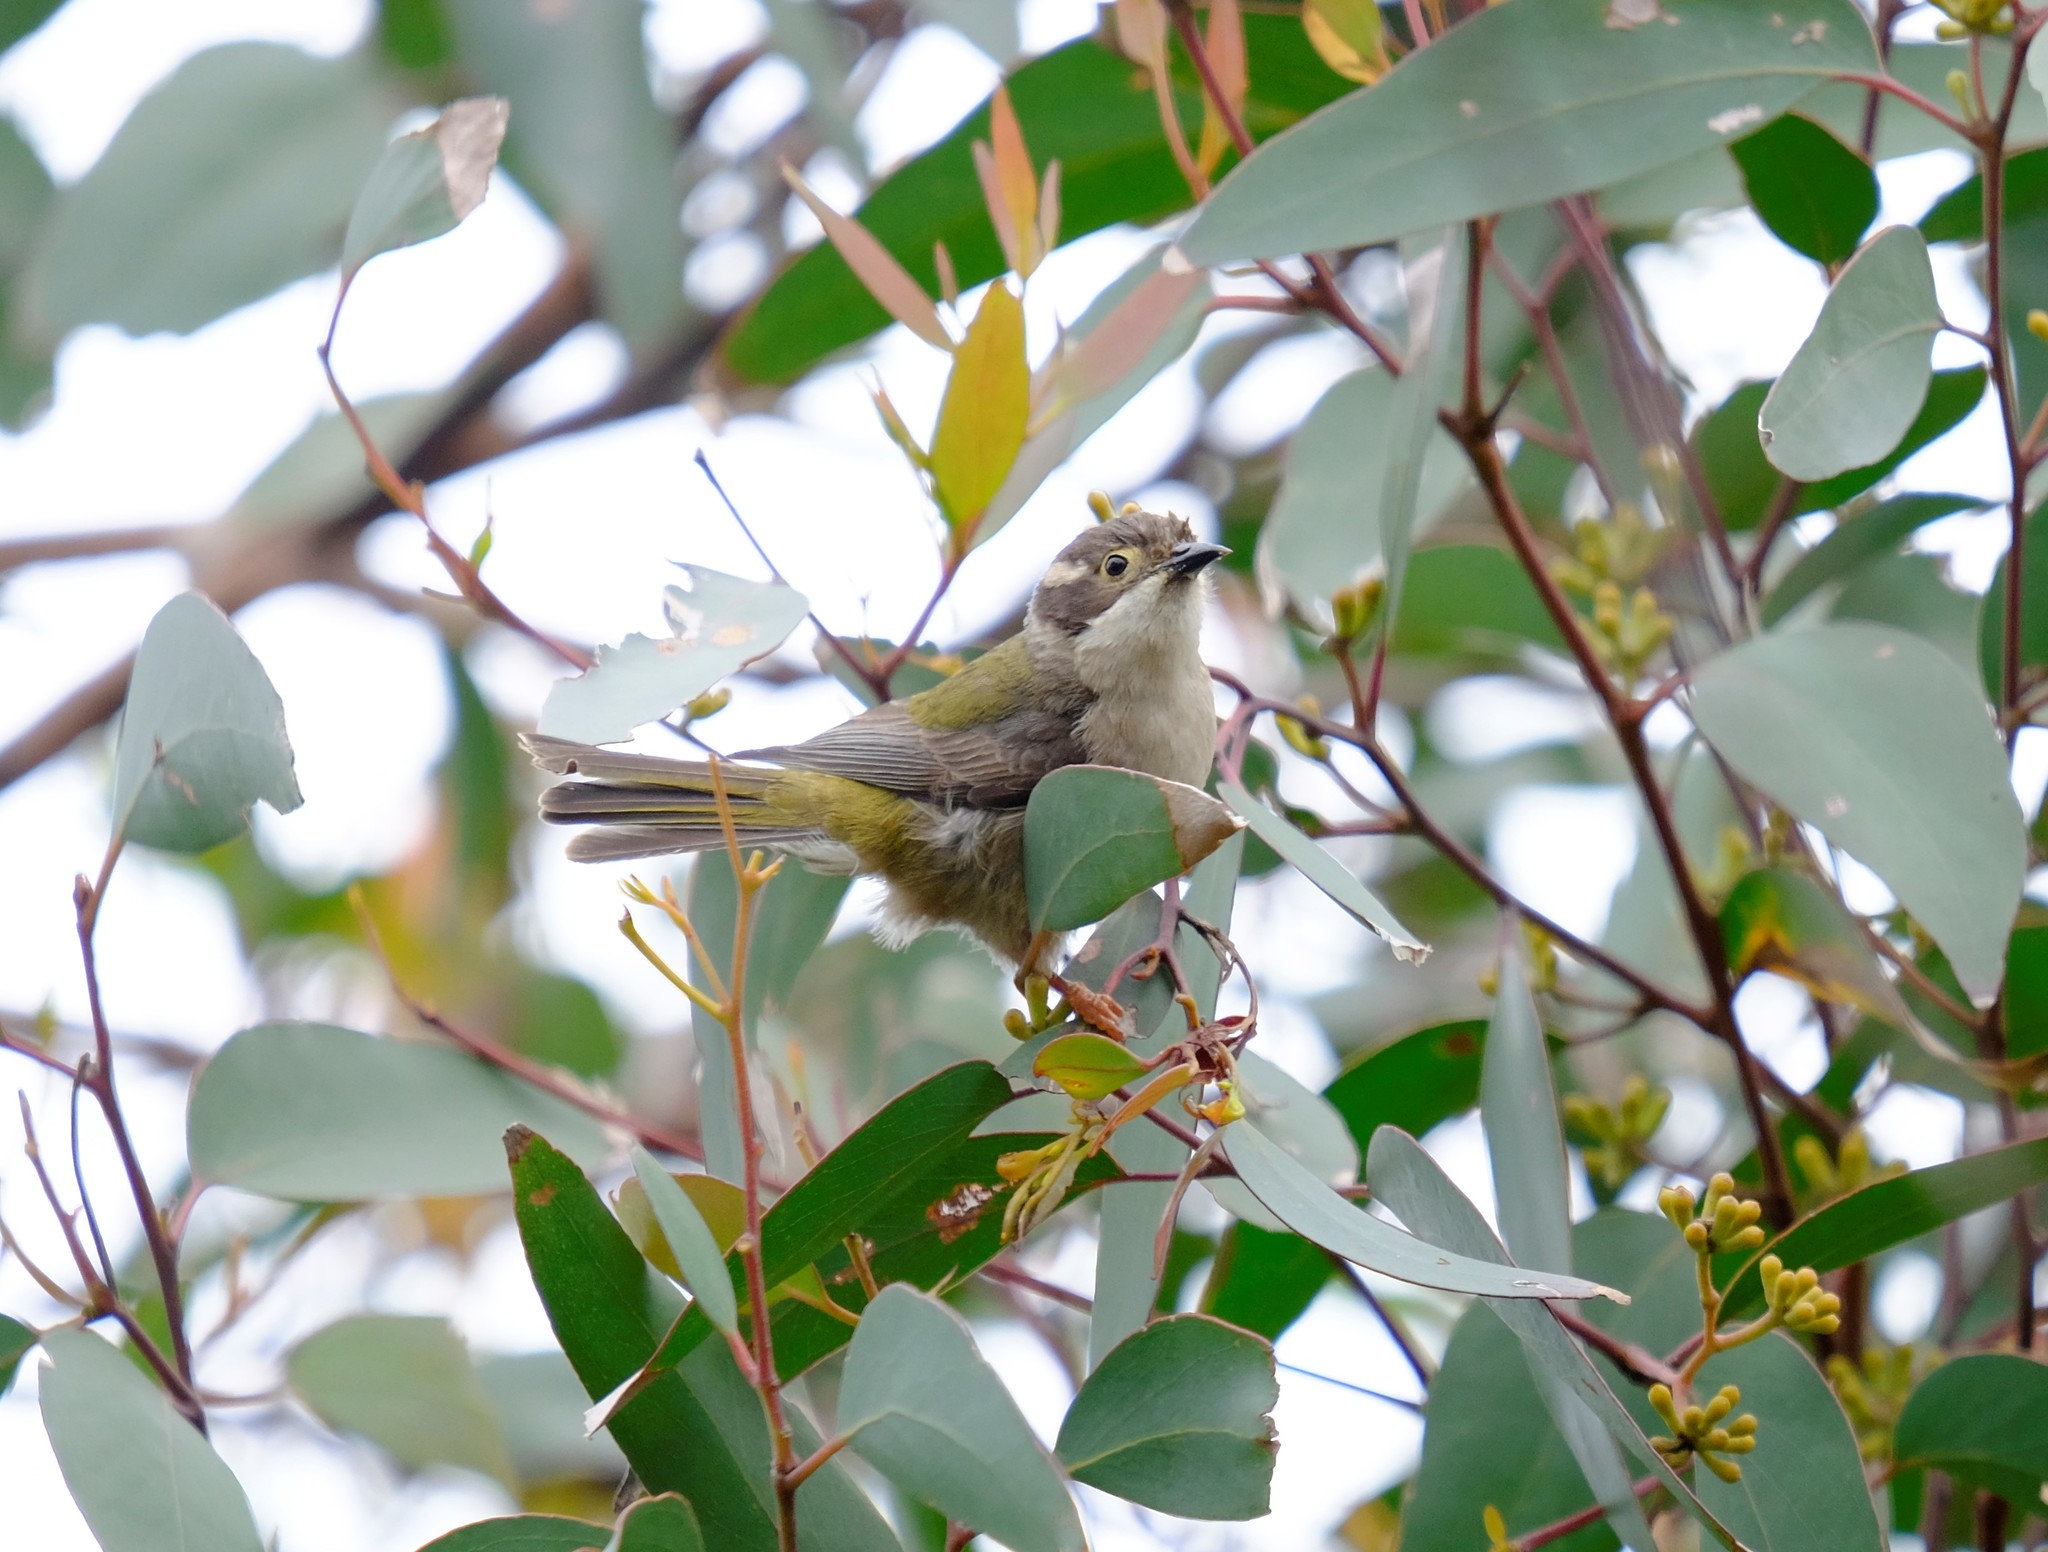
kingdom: Animalia
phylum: Chordata
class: Aves
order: Passeriformes
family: Meliphagidae
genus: Melithreptus
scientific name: Melithreptus brevirostris
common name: Brown-headed honeyeater
